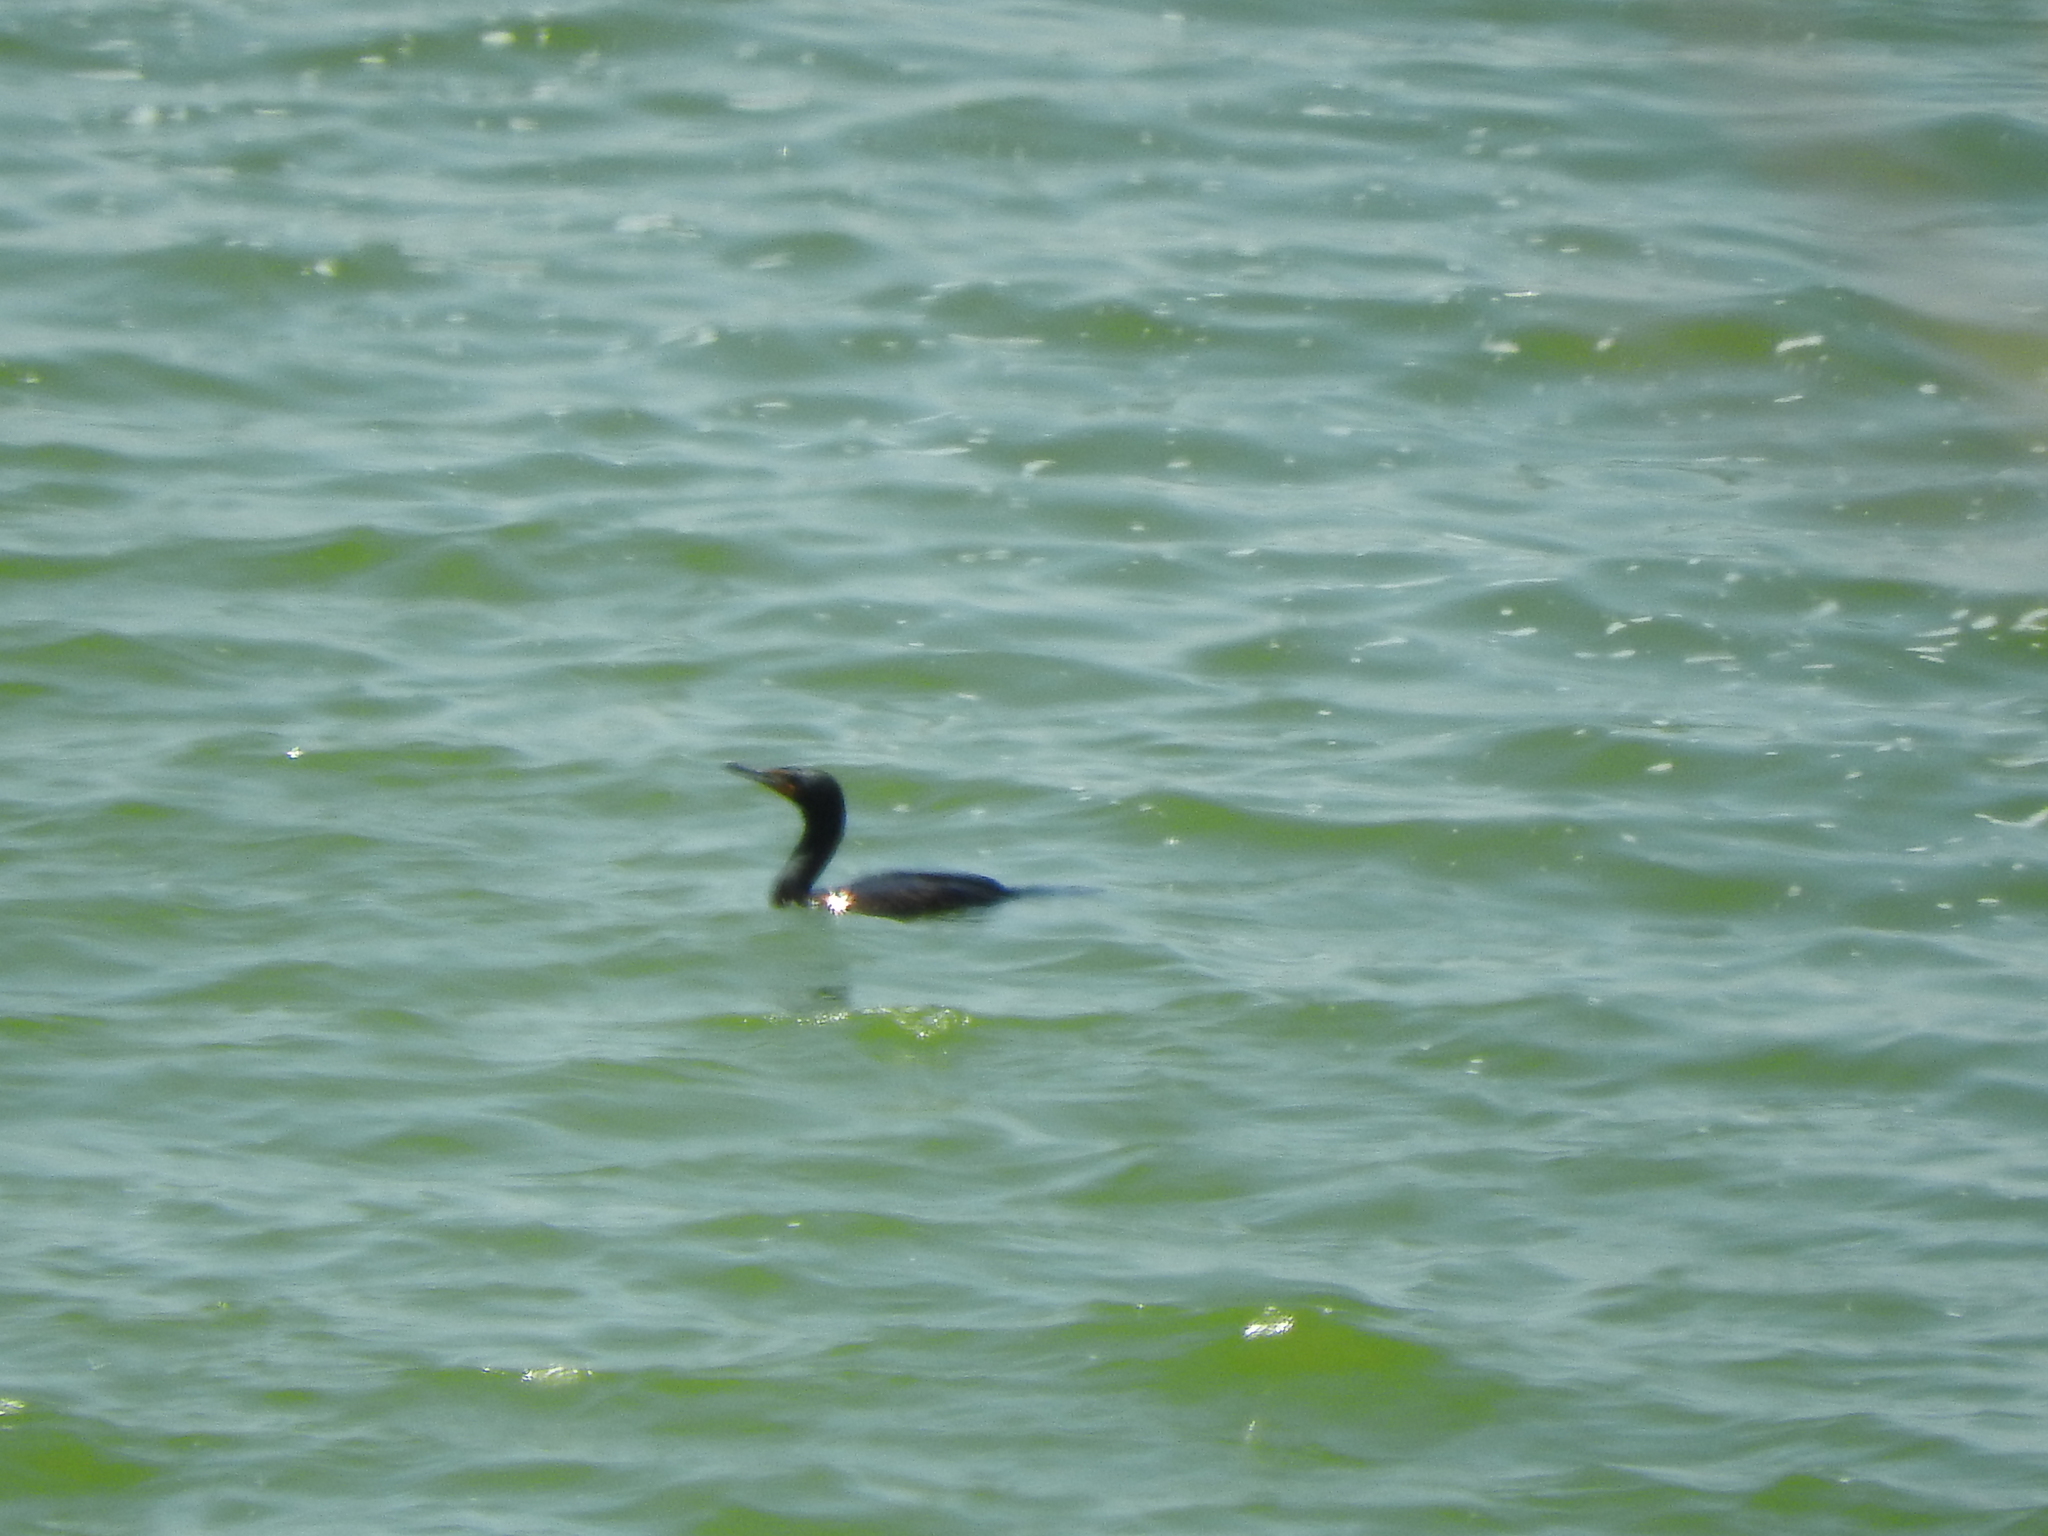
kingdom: Animalia
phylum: Chordata
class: Aves
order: Suliformes
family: Phalacrocoracidae
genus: Phalacrocorax
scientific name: Phalacrocorax auritus
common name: Double-crested cormorant
